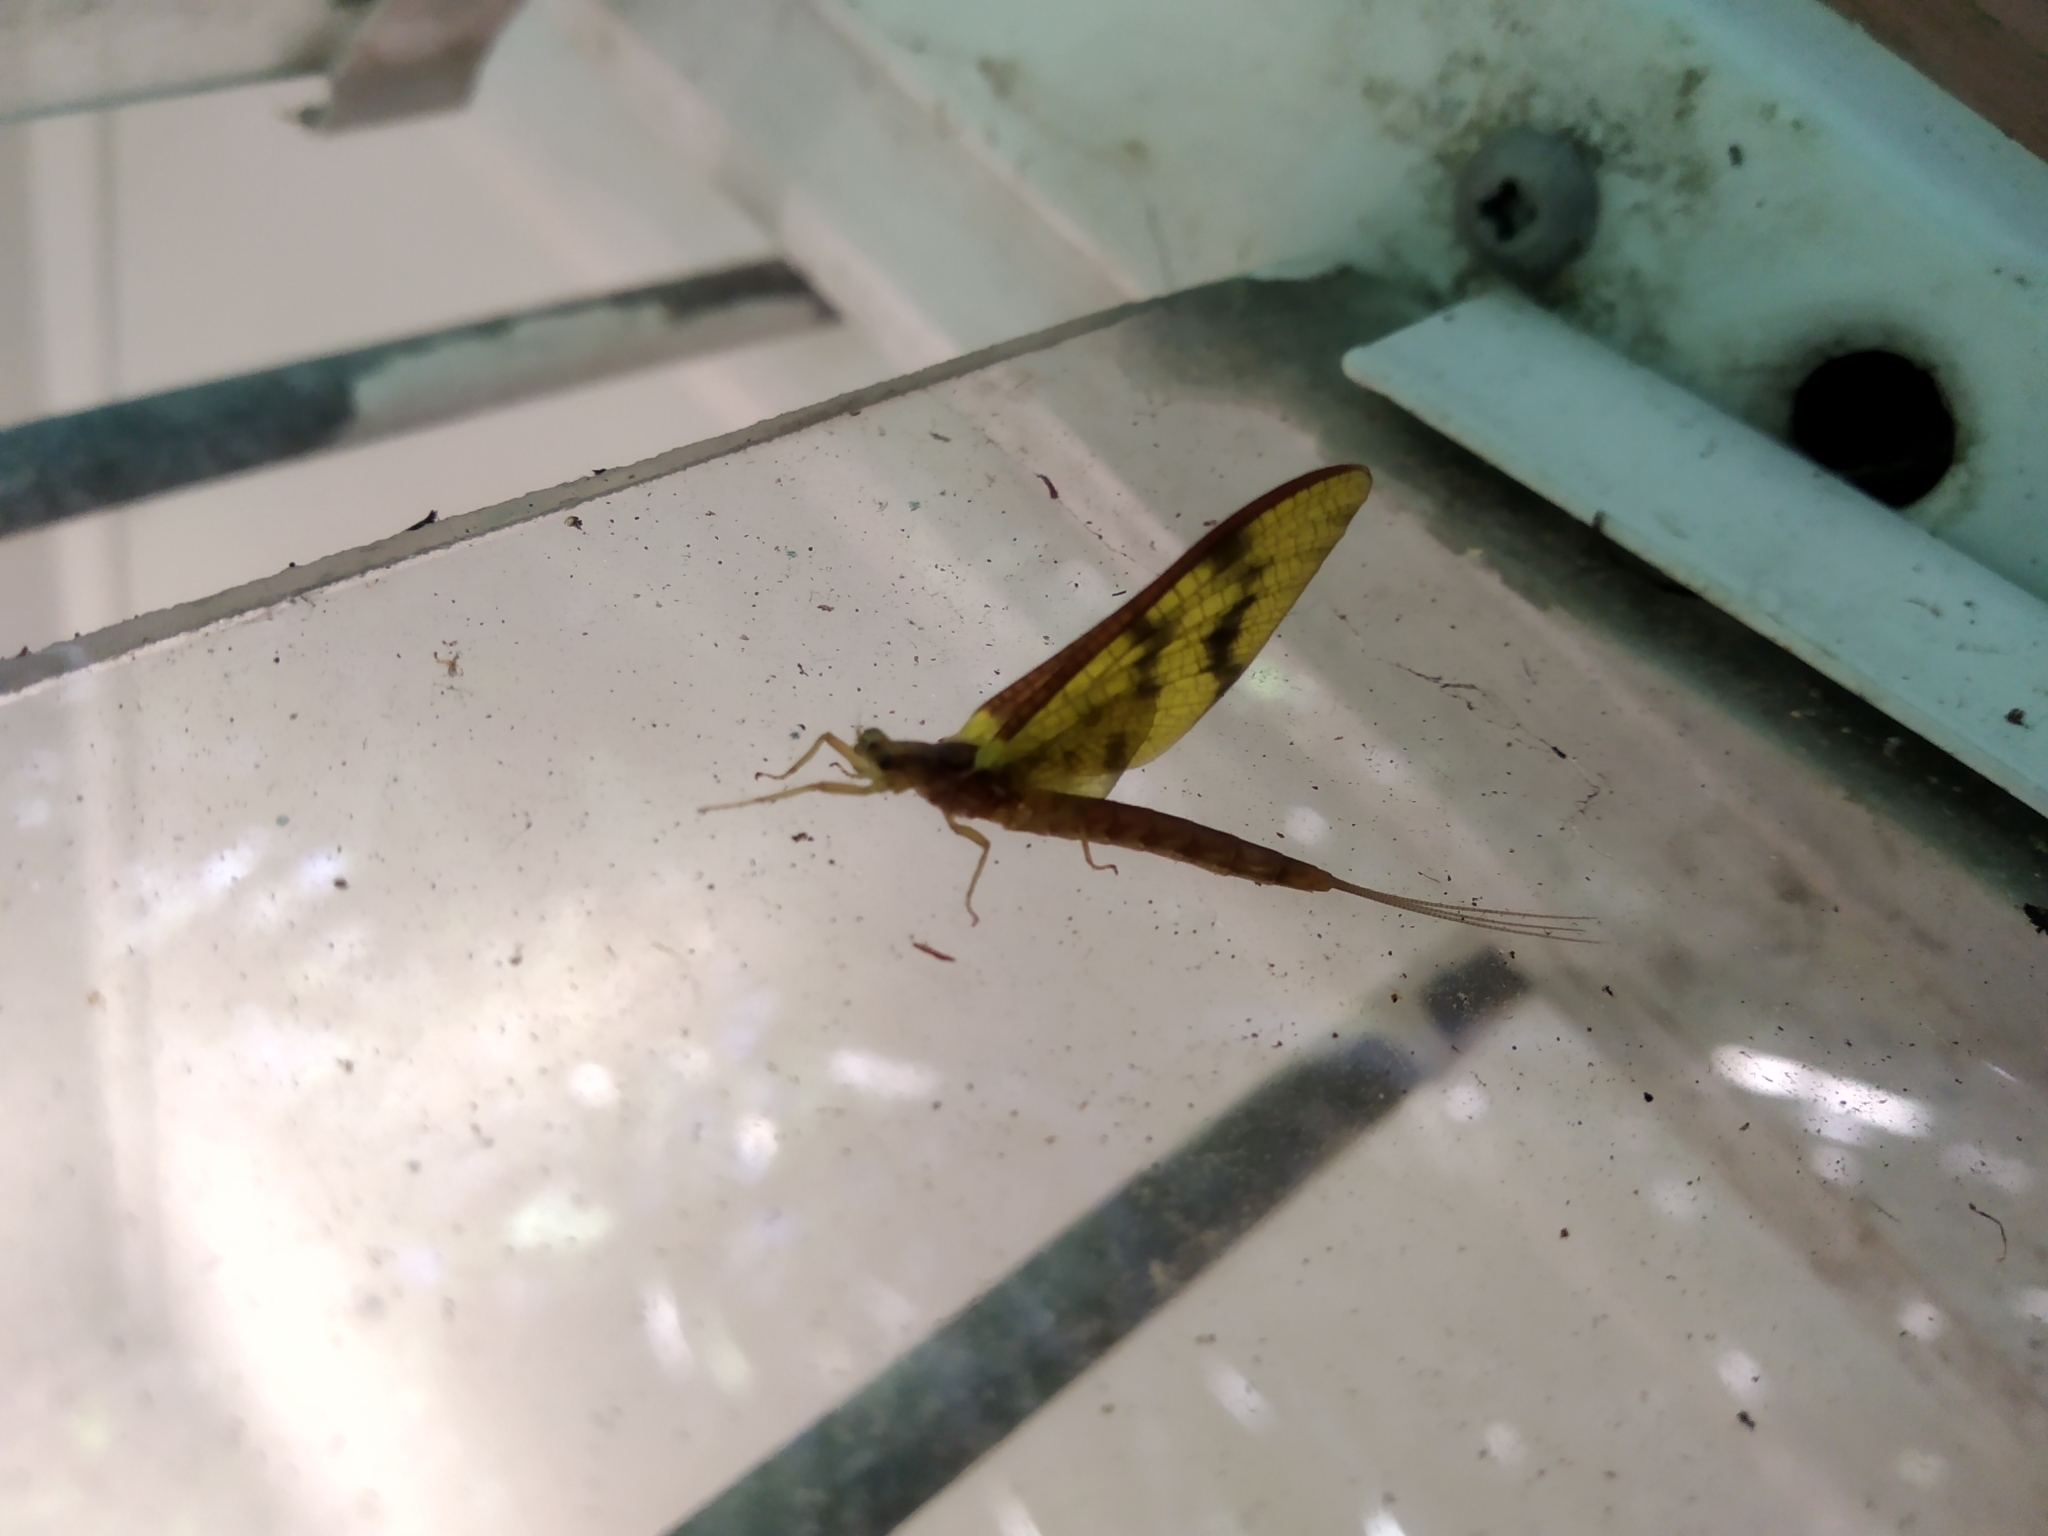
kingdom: Animalia
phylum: Arthropoda
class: Insecta
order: Ephemeroptera
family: Ichthybotidae
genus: Ichthybotus
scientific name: Ichthybotus hudsoni
